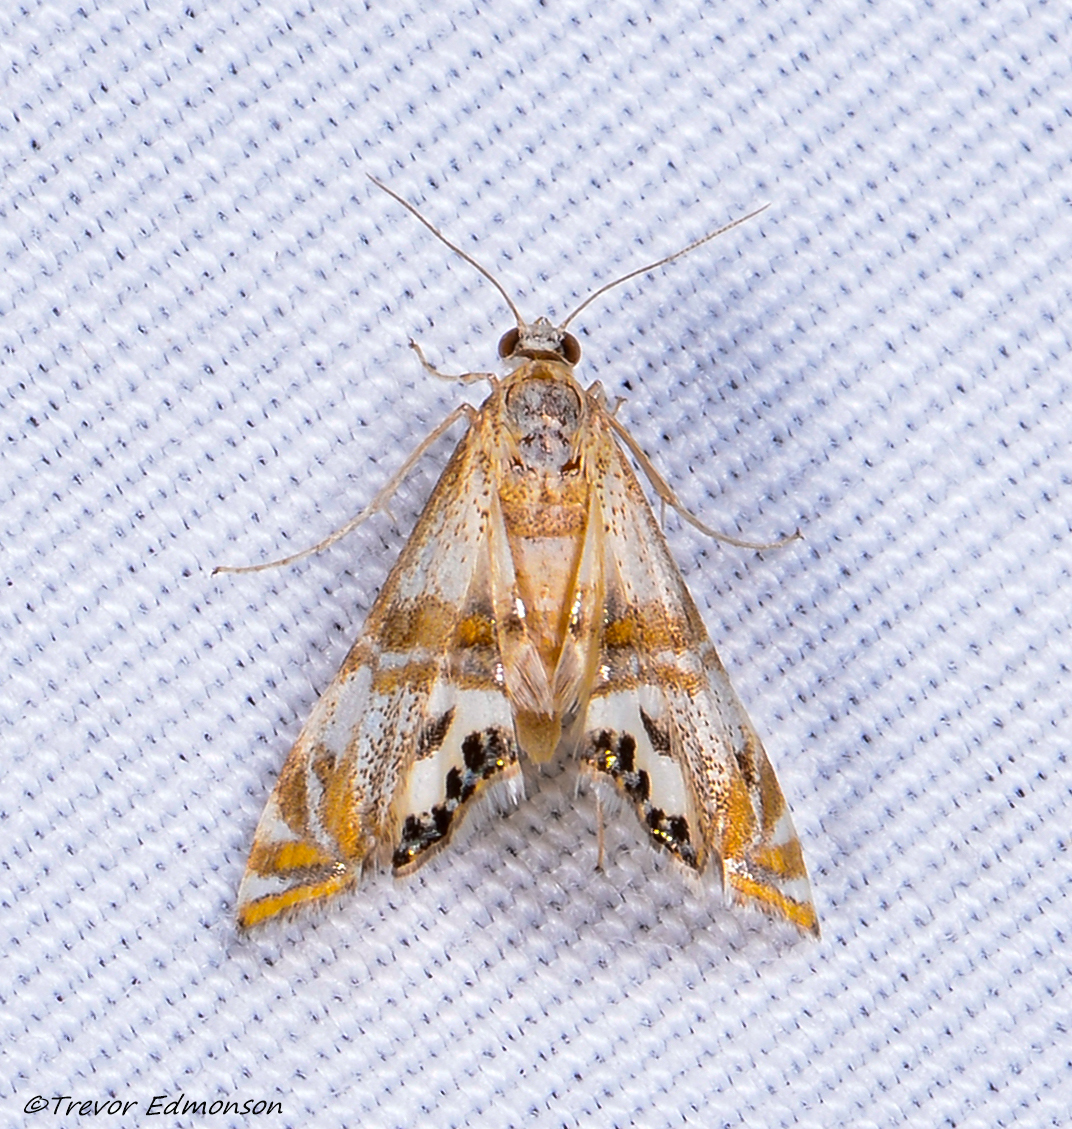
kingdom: Animalia
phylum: Arthropoda
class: Insecta
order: Lepidoptera
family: Crambidae
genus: Petrophila
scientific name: Petrophila bifascialis
